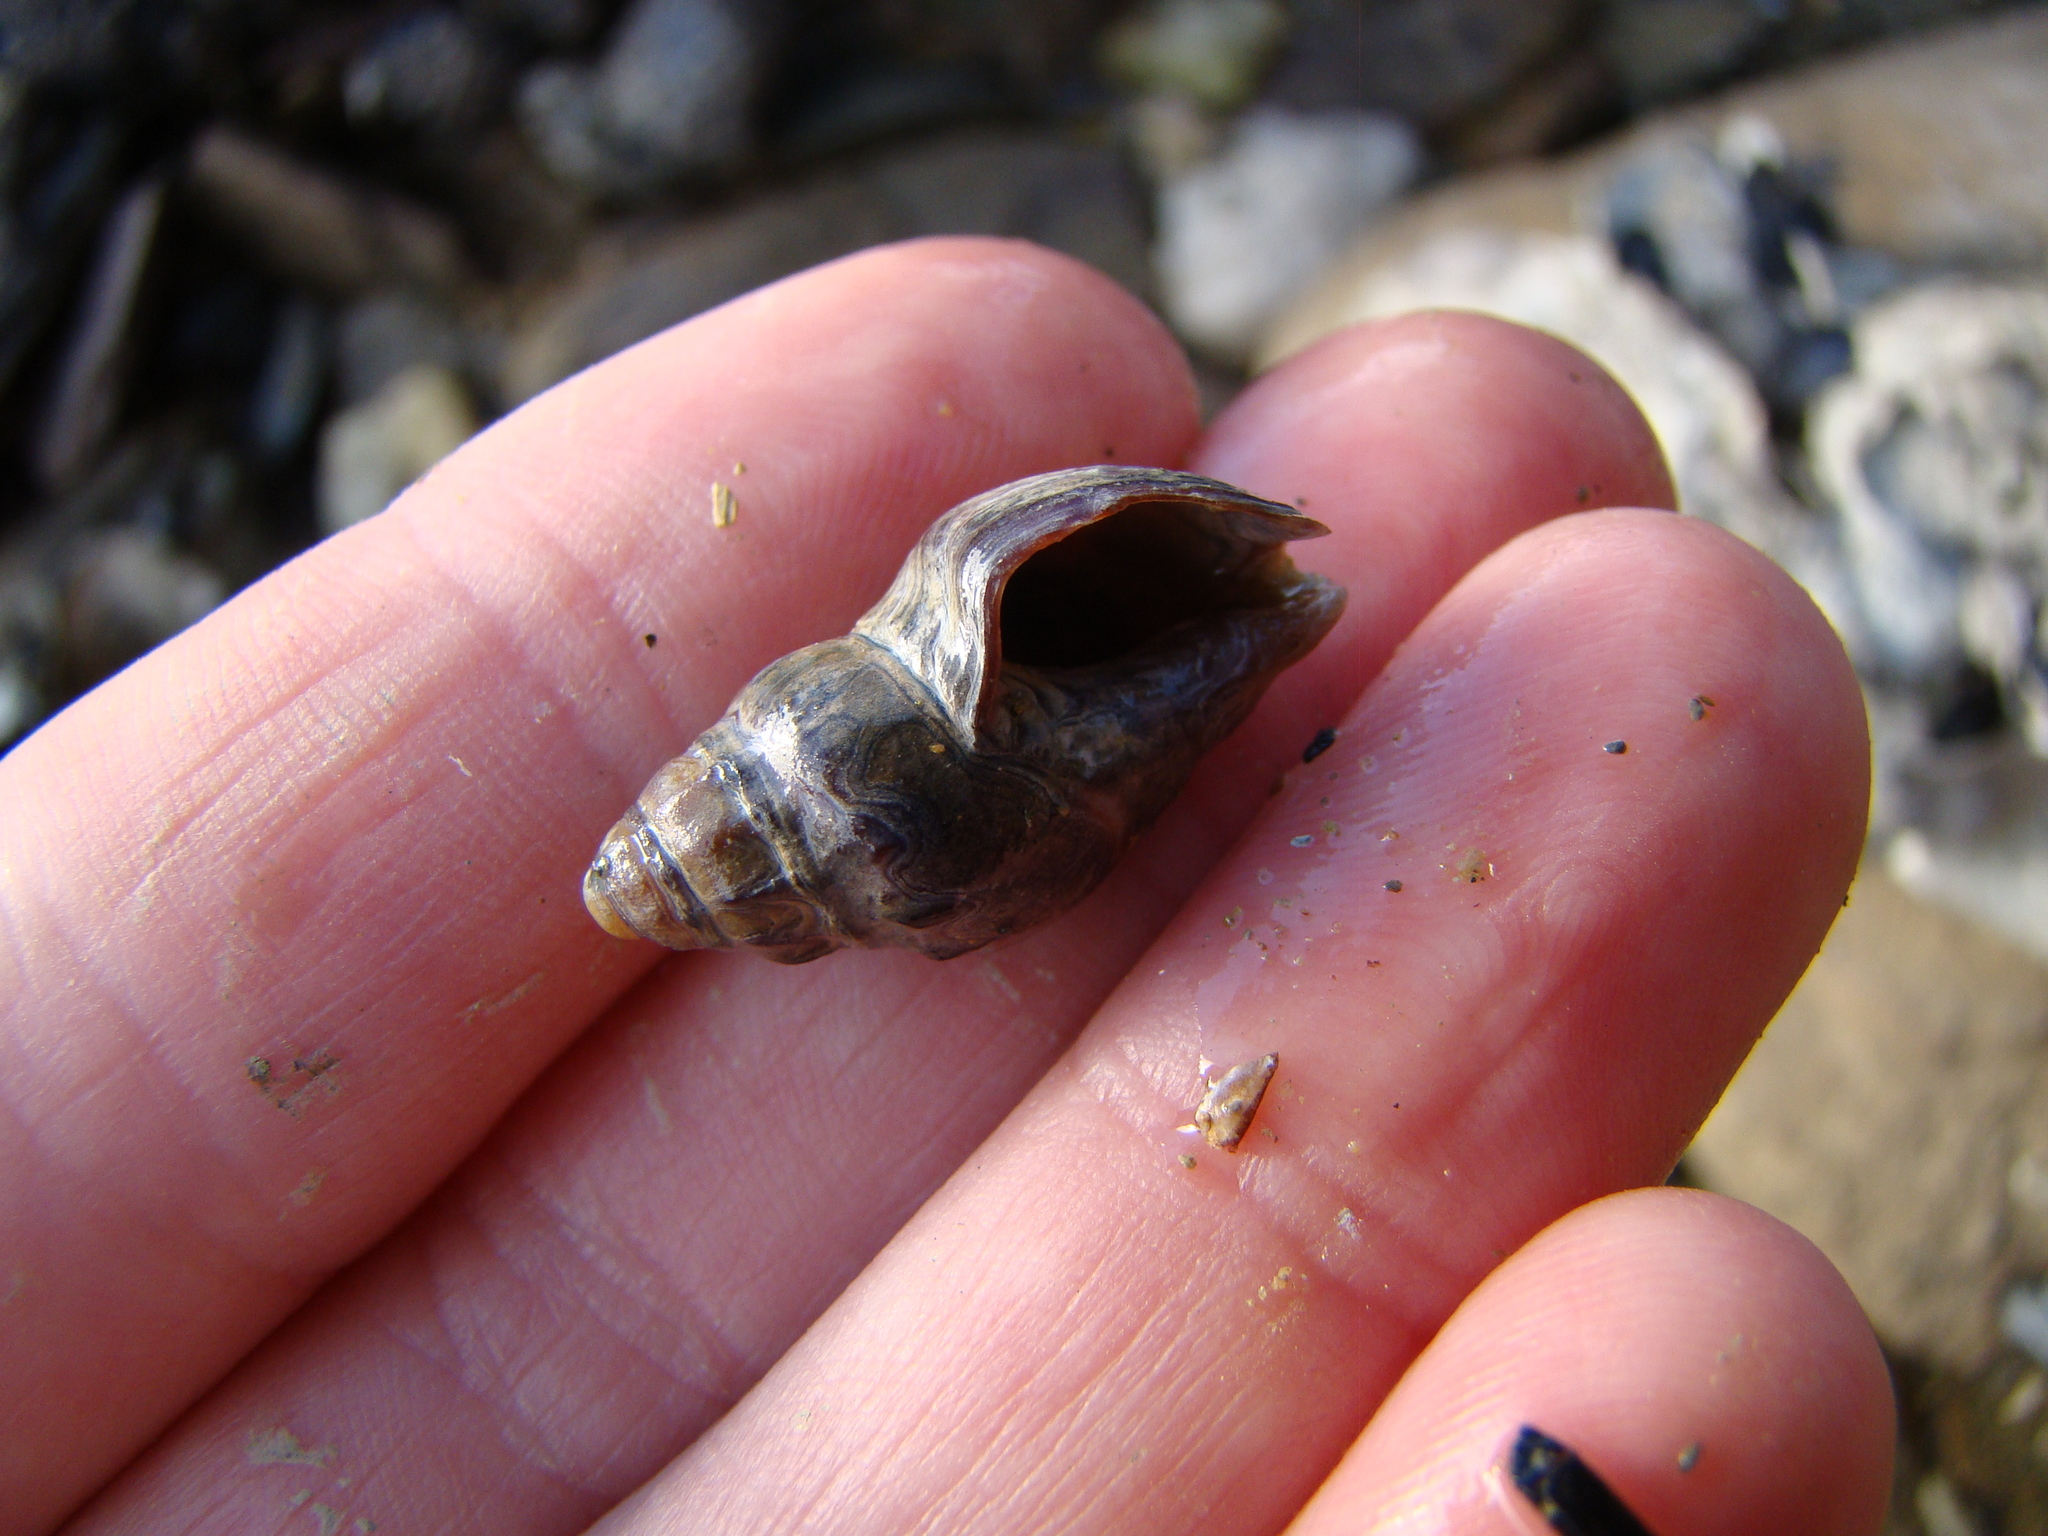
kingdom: Animalia
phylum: Mollusca
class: Gastropoda
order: Neogastropoda
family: Cominellidae
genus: Cominella
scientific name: Cominella glandiformis
